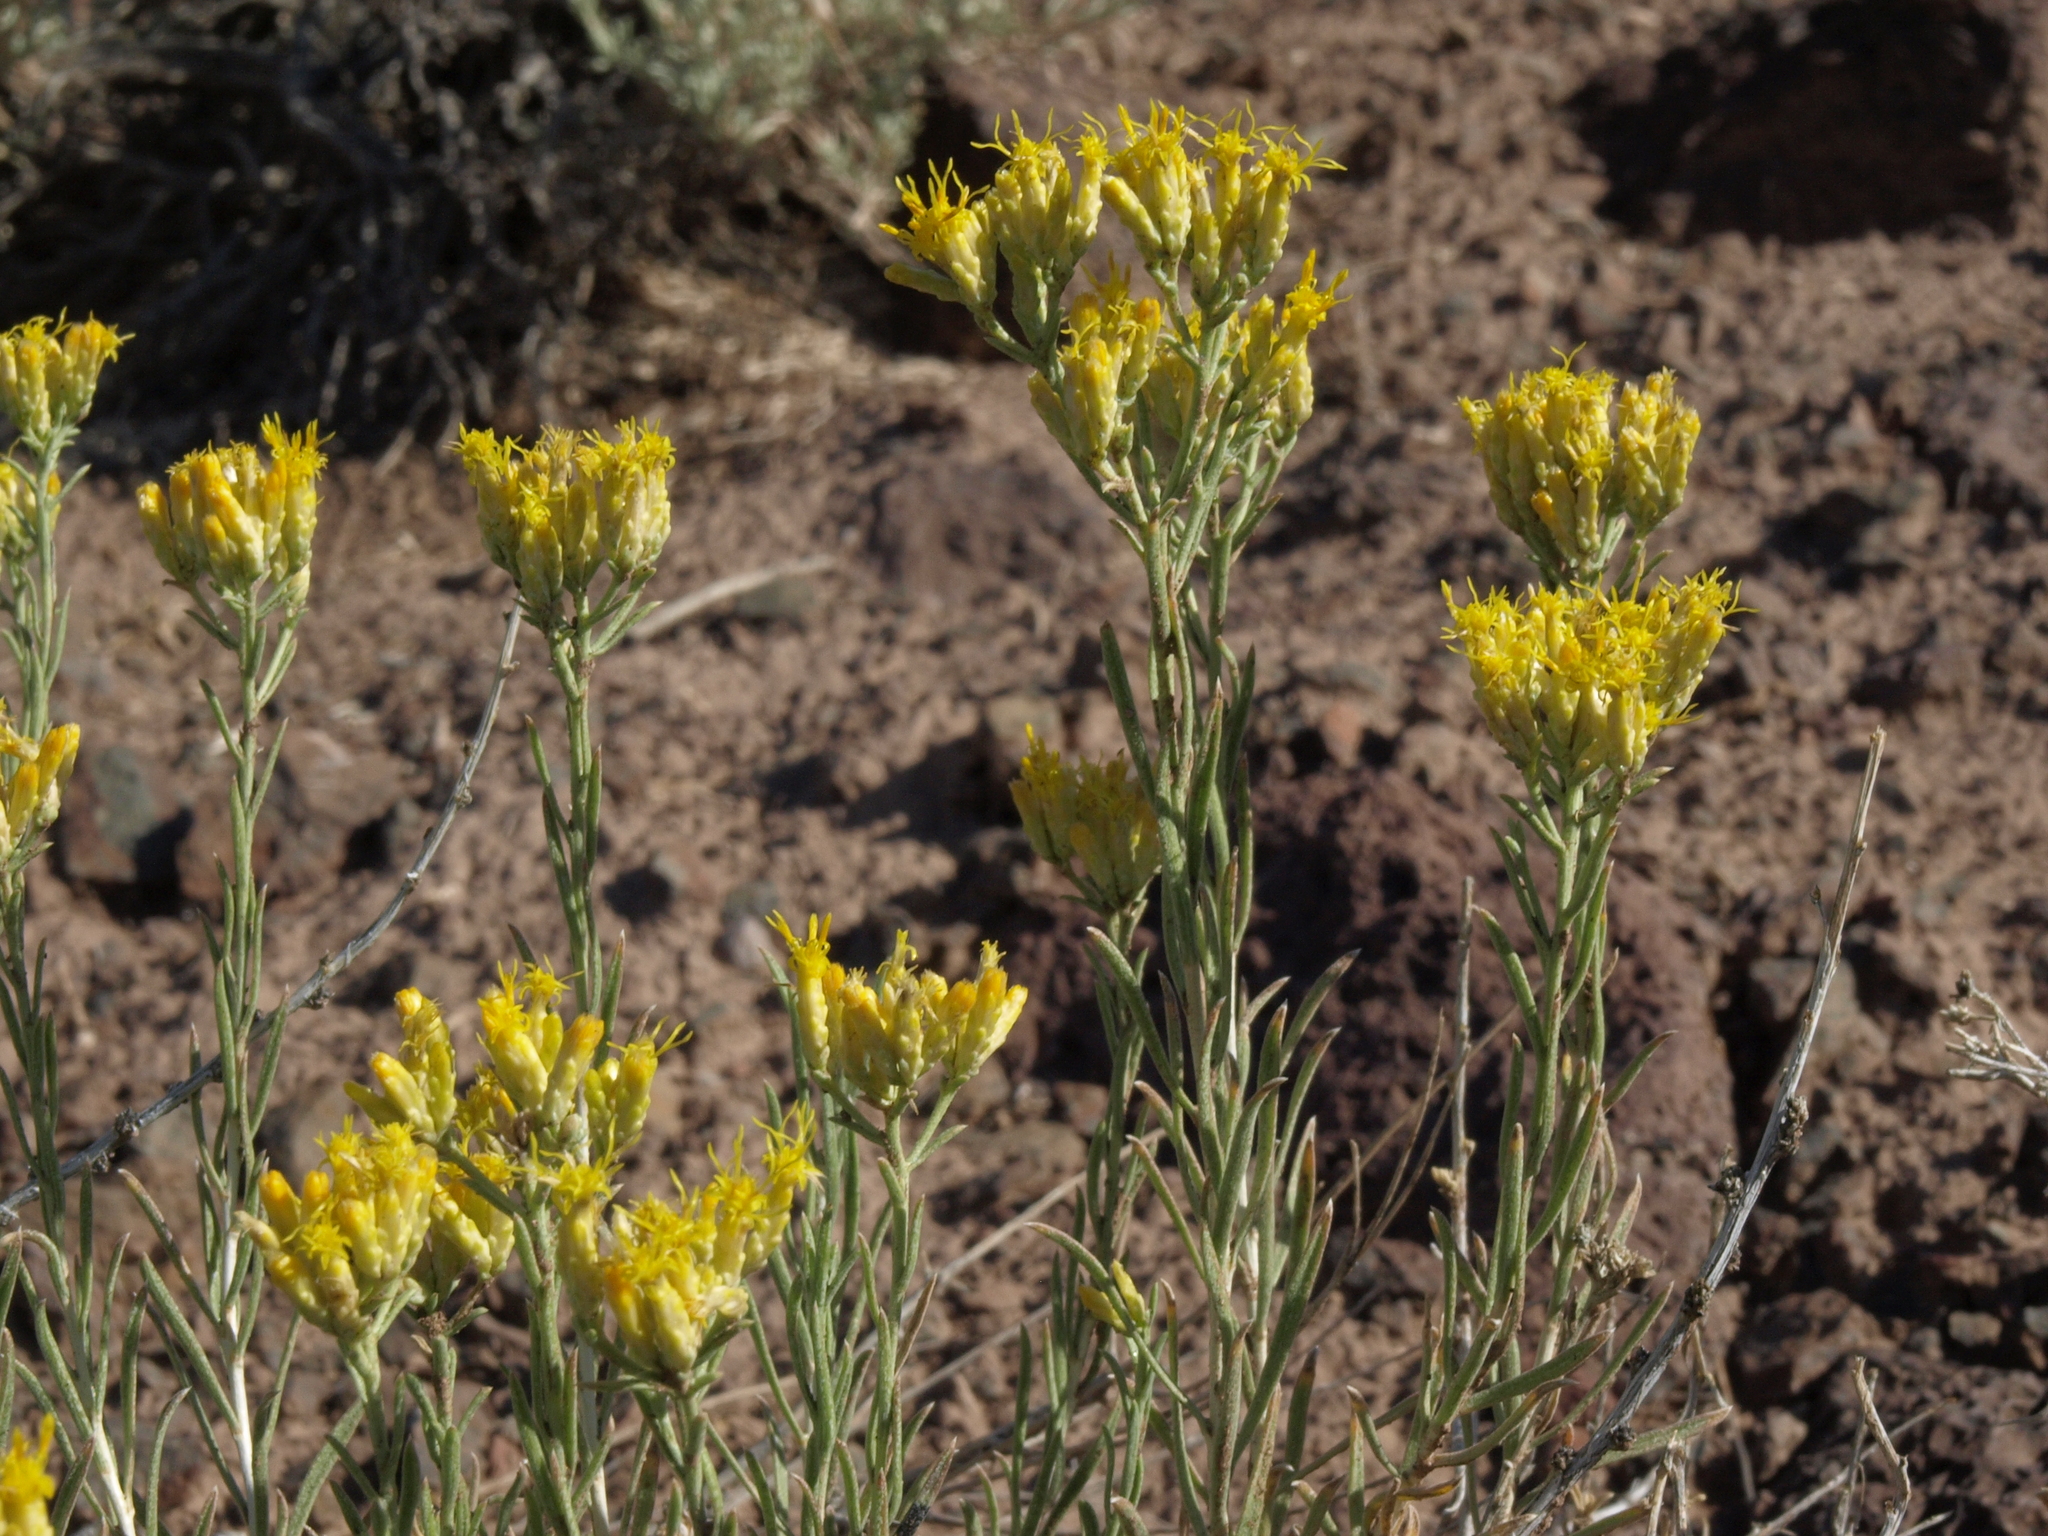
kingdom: Plantae
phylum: Tracheophyta
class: Magnoliopsida
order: Asterales
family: Asteraceae
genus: Chrysothamnus
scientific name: Chrysothamnus viscidiflorus
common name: Yellow rabbitbrush
